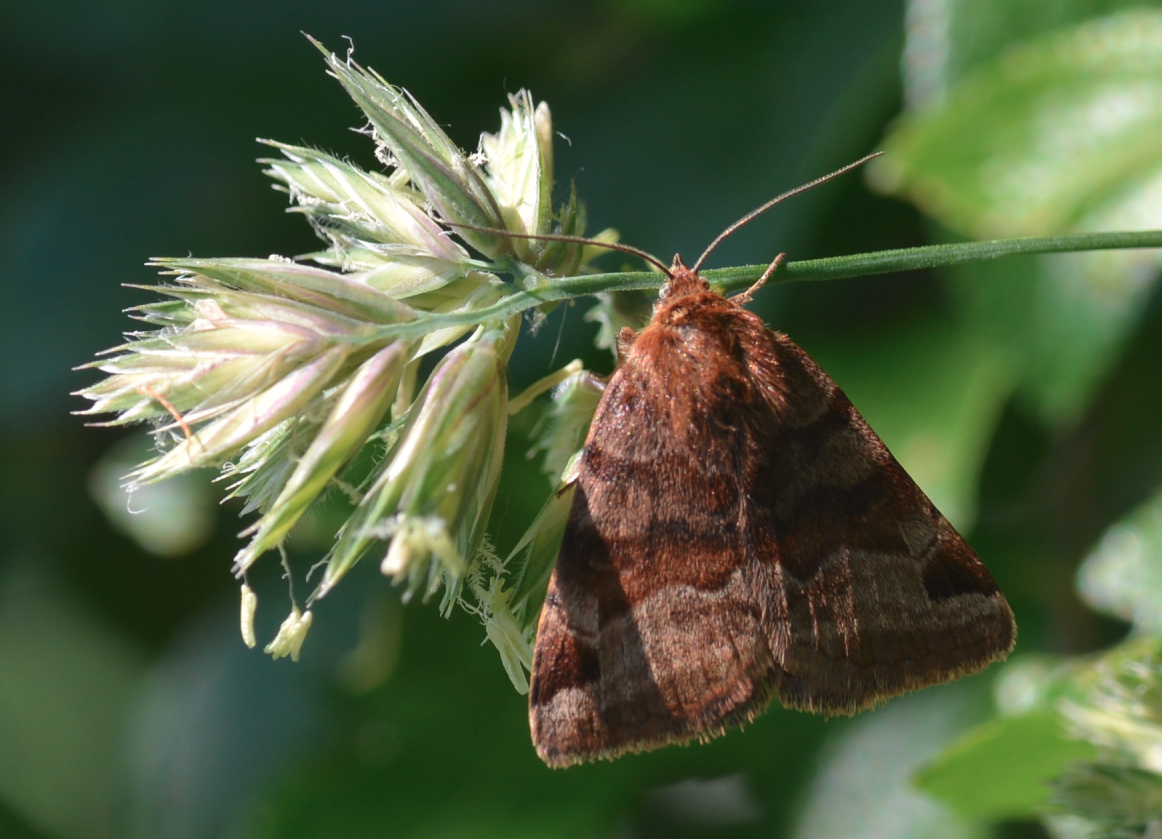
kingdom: Animalia
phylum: Arthropoda
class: Insecta
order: Lepidoptera
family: Erebidae
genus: Euclidia
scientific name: Euclidia glyphica
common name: Burnet companion
